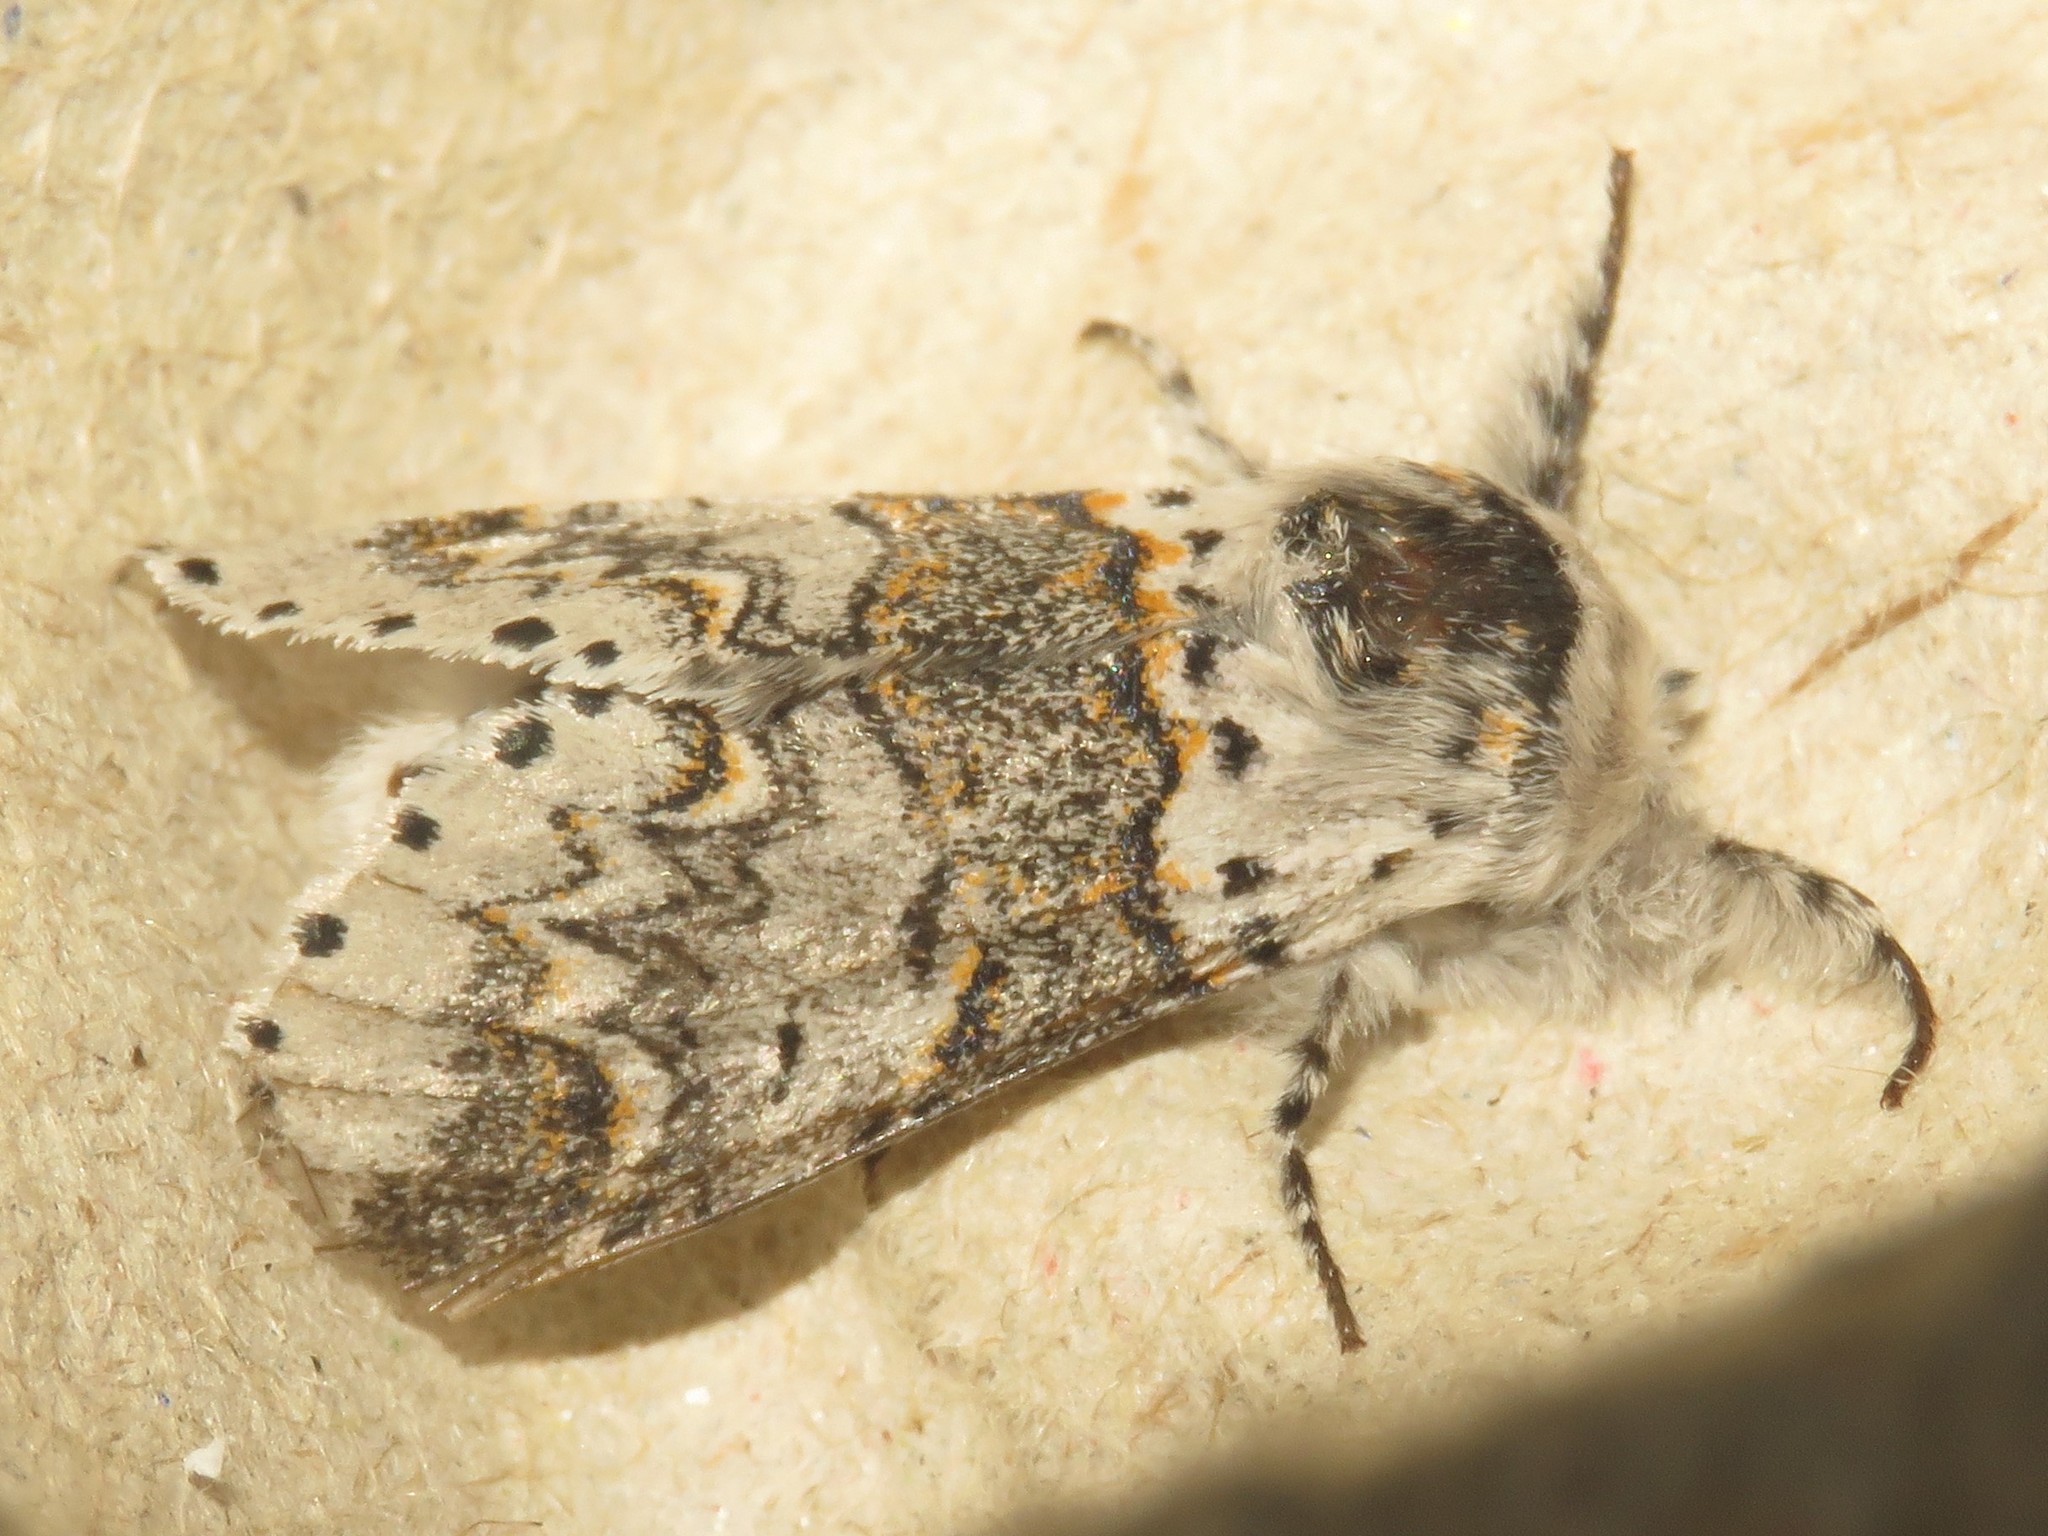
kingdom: Animalia
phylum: Arthropoda
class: Insecta
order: Lepidoptera
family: Notodontidae
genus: Furcula
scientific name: Furcula occidentalis
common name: Western furcula moth
